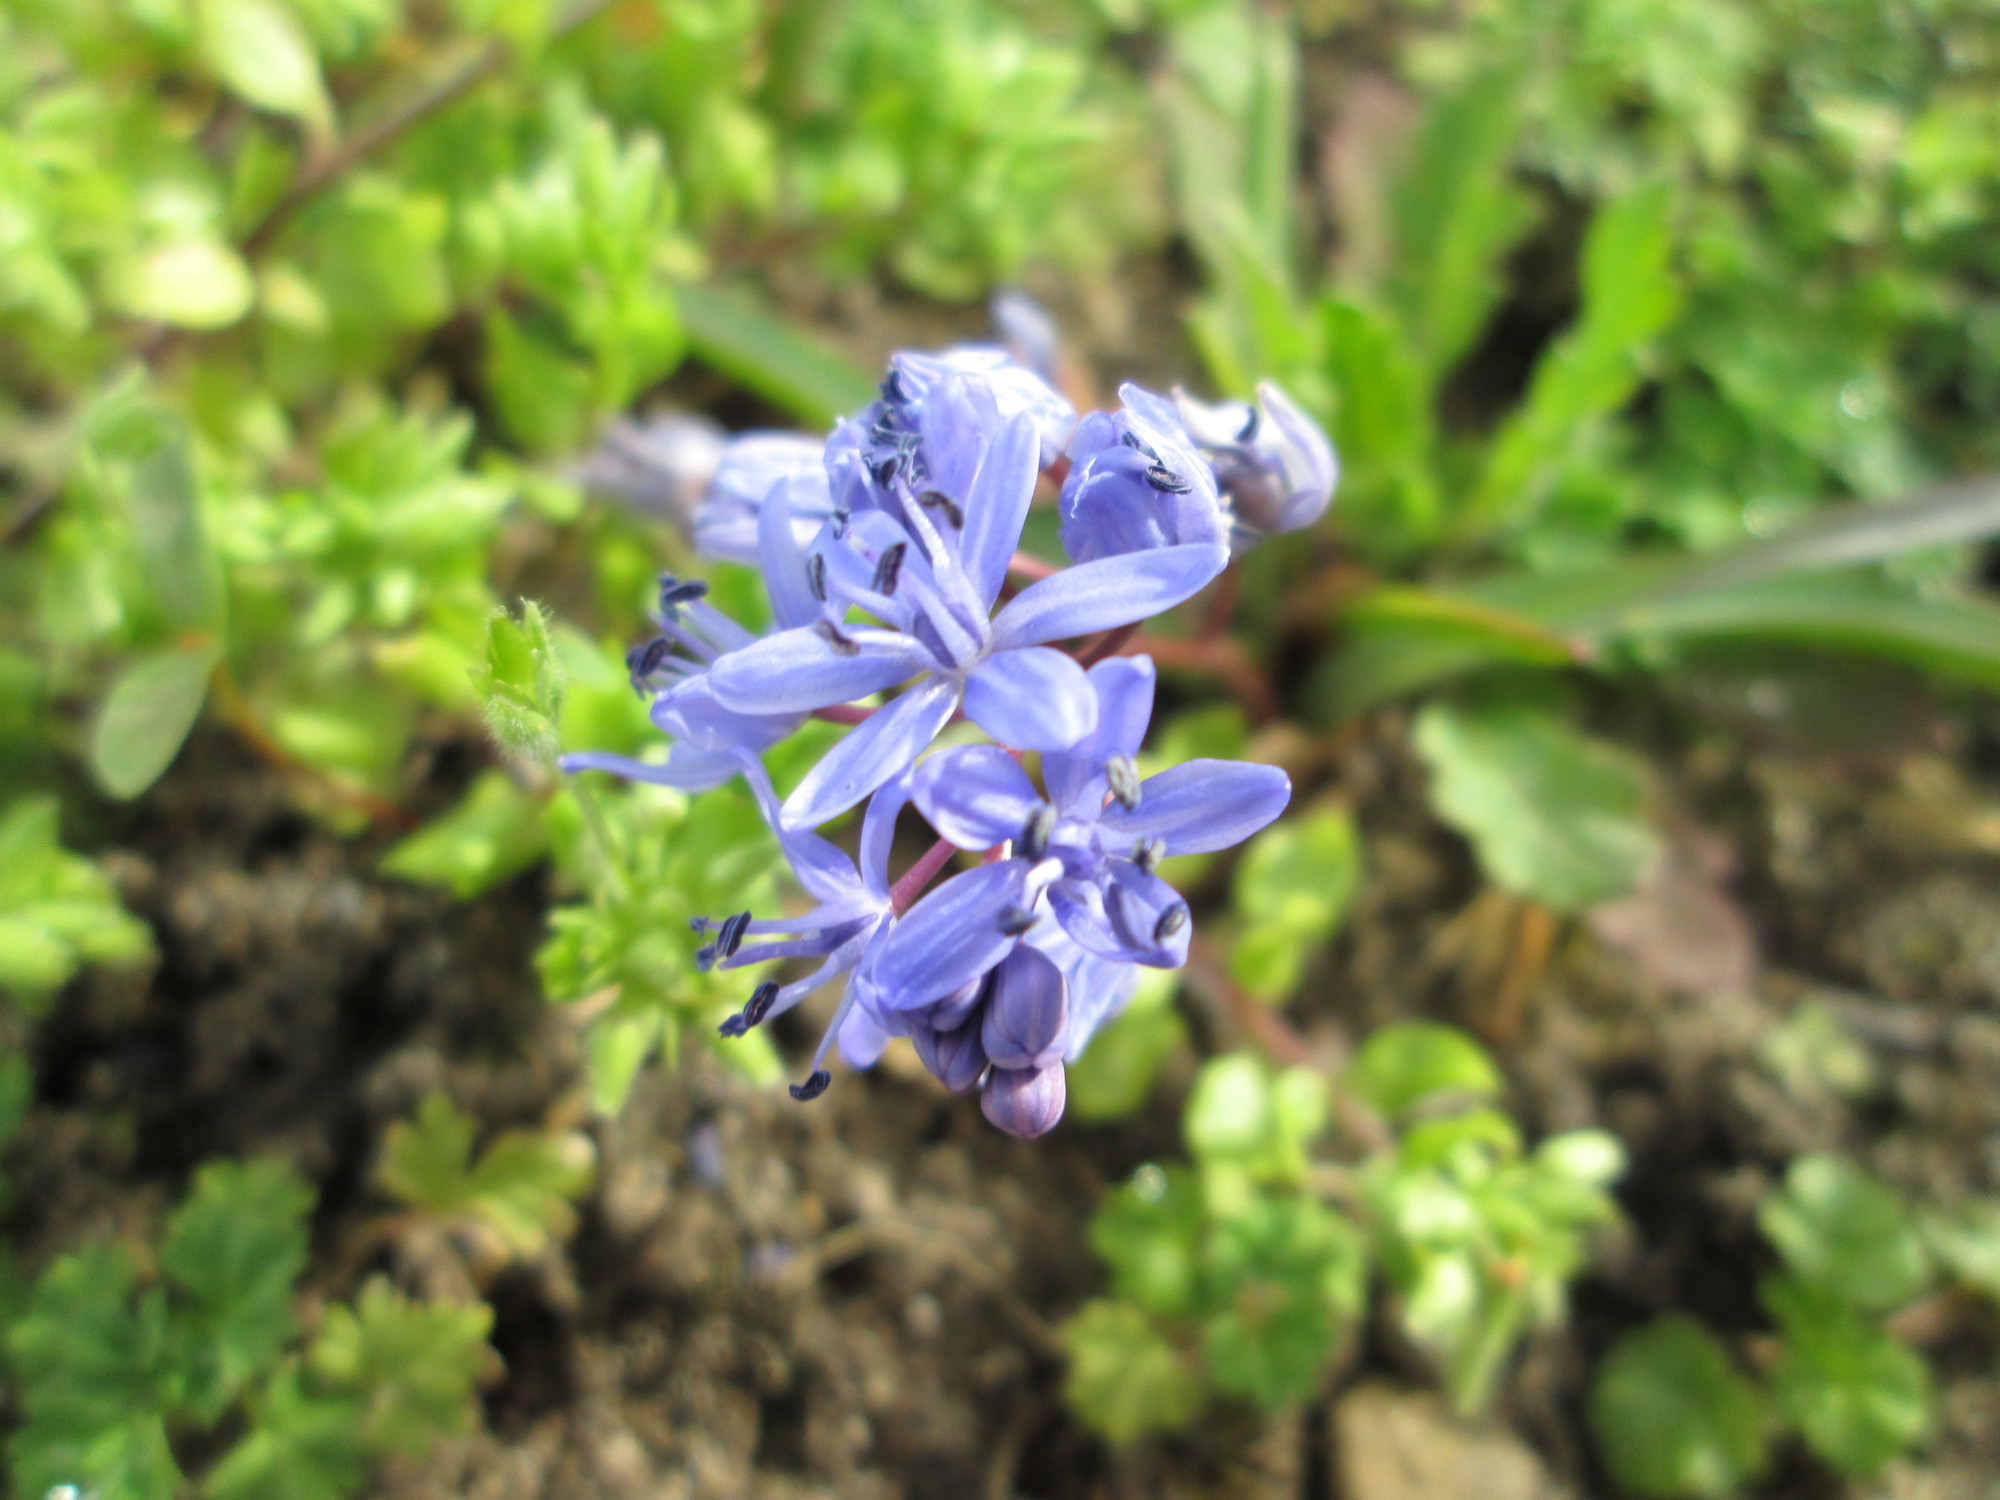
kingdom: Plantae
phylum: Tracheophyta
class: Liliopsida
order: Asparagales
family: Asparagaceae
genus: Scilla
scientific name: Scilla bifolia
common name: Alpine squill
